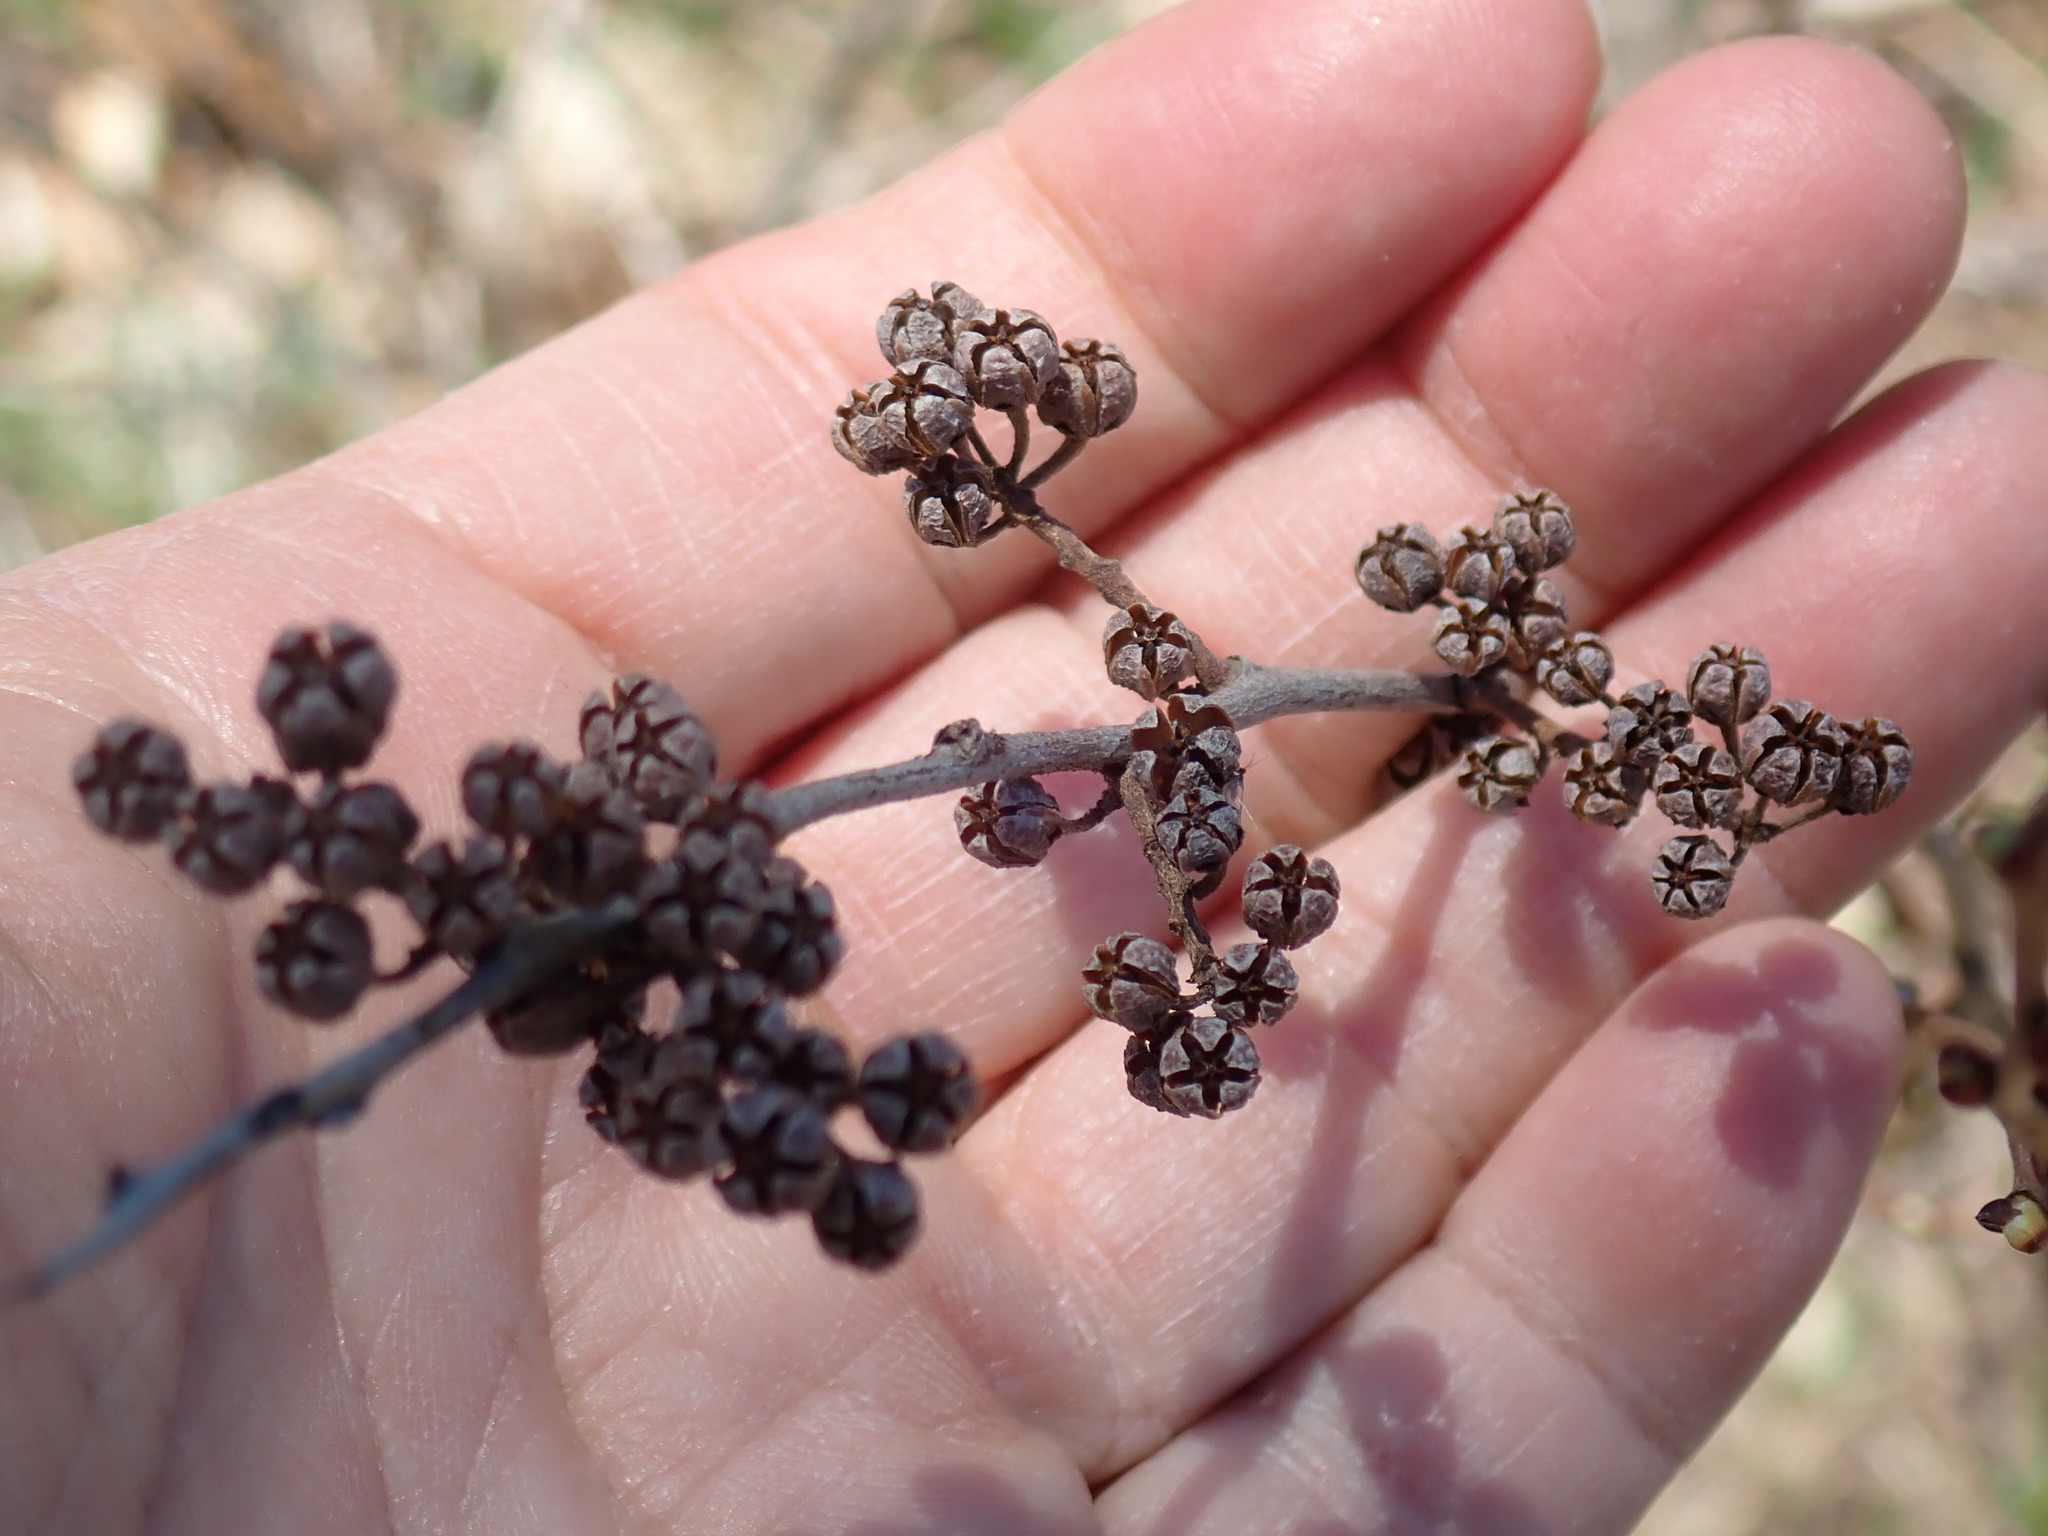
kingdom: Plantae
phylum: Tracheophyta
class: Magnoliopsida
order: Ericales
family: Ericaceae
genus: Lyonia
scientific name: Lyonia ligustrina
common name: Maleberry
